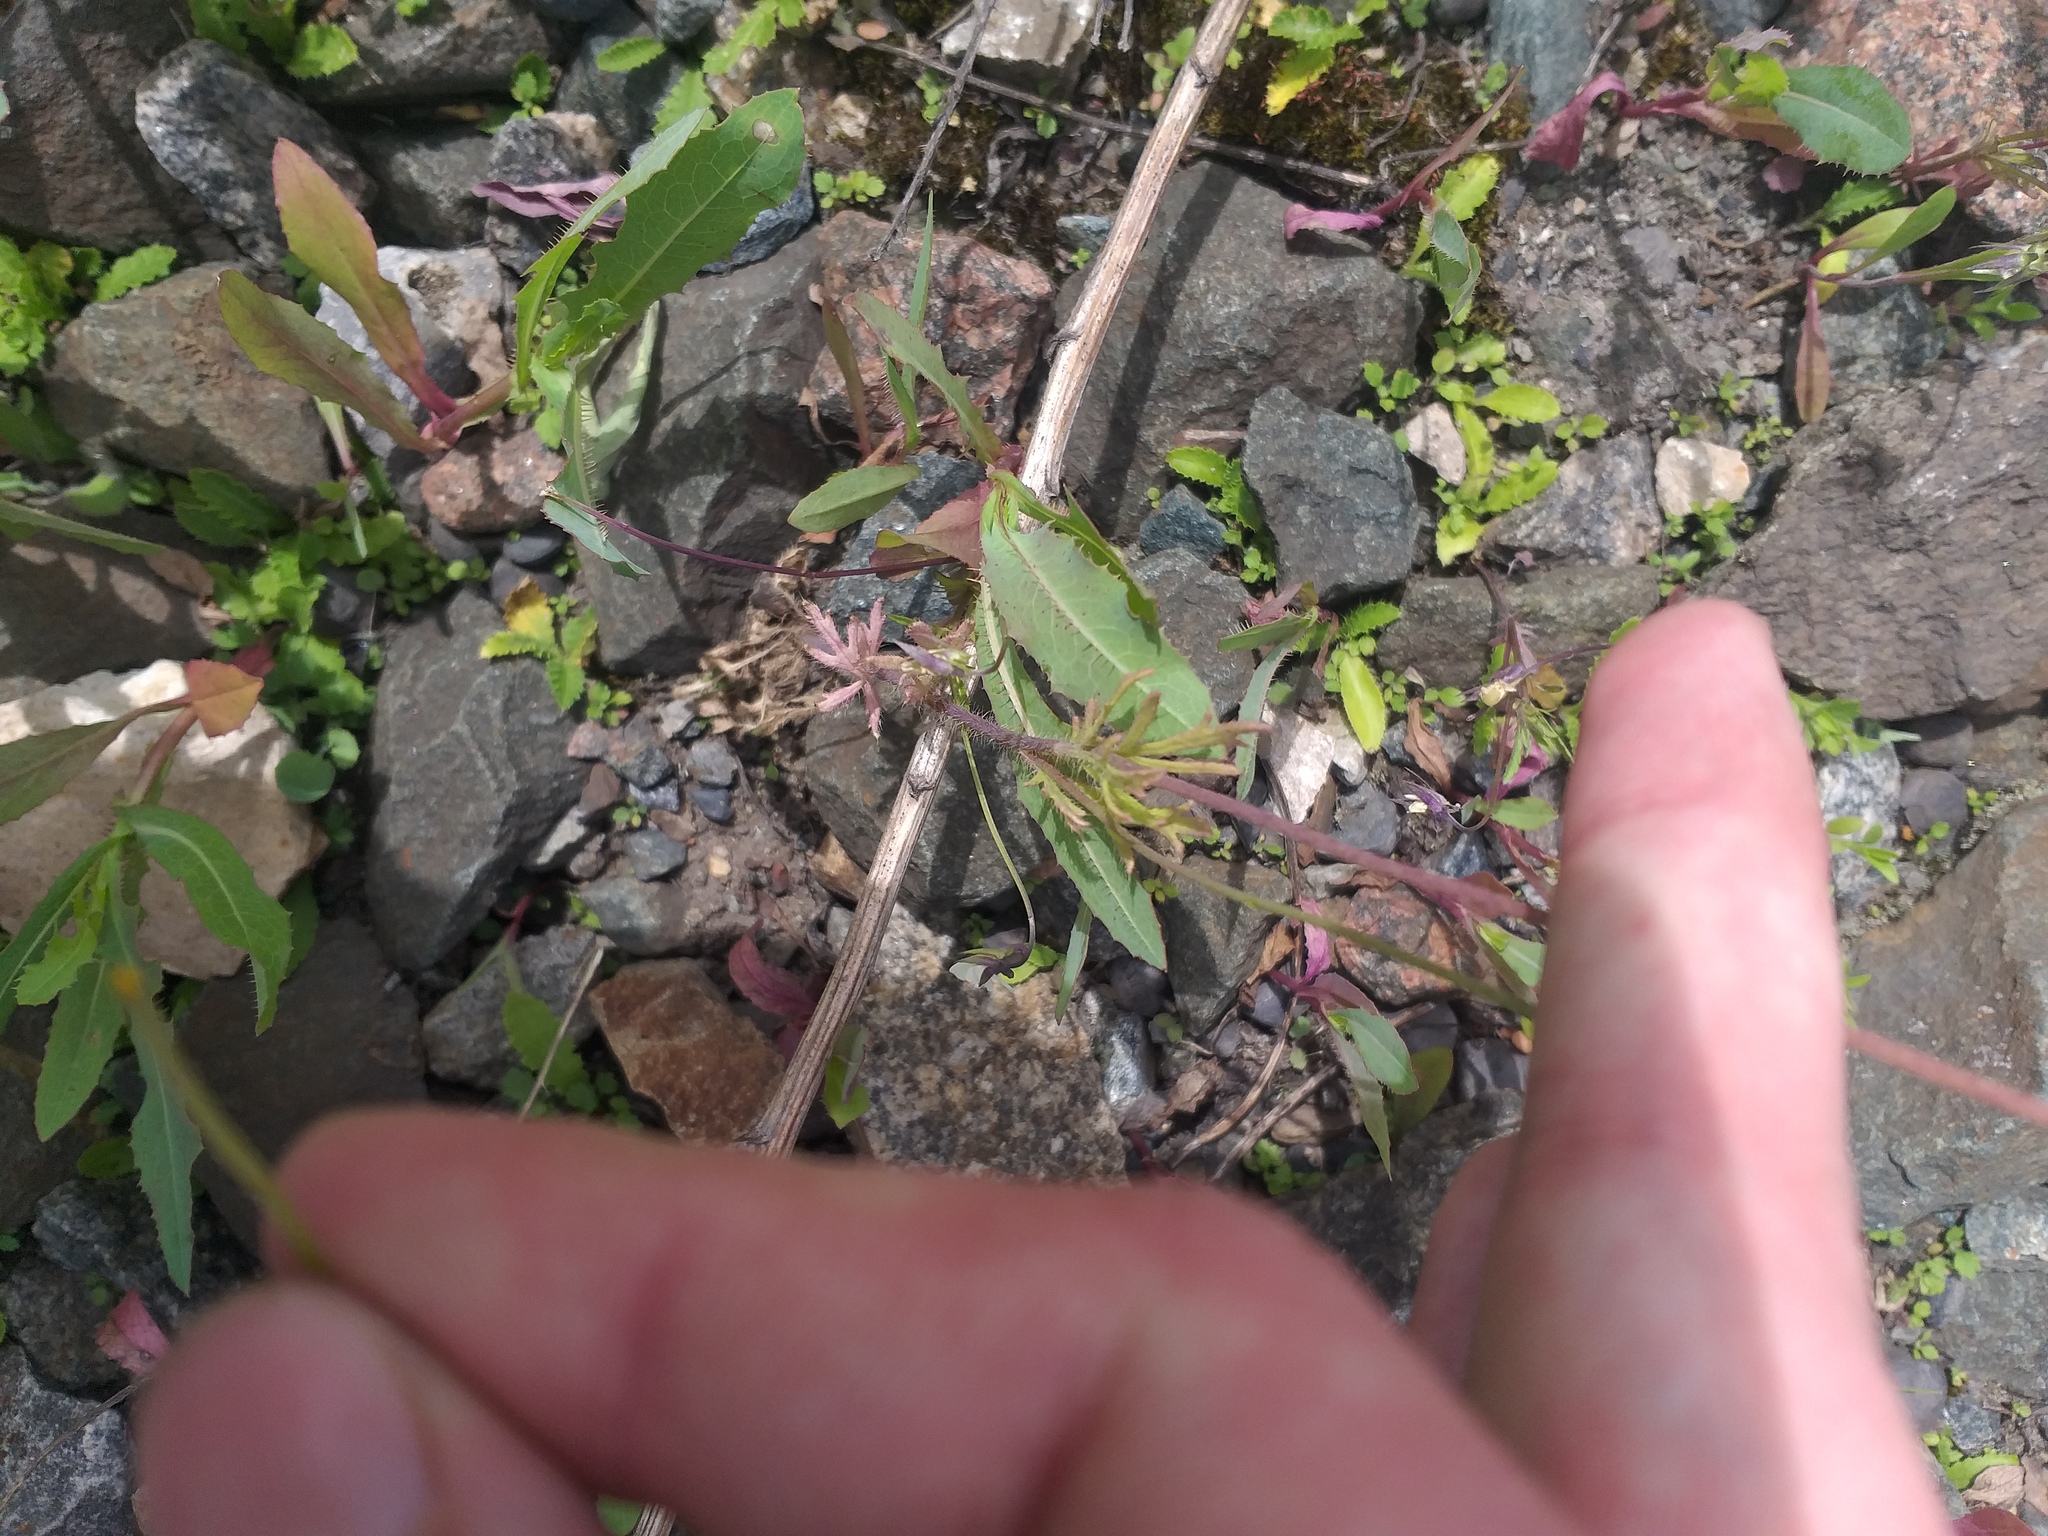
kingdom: Plantae
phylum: Tracheophyta
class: Magnoliopsida
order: Ranunculales
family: Papaveraceae
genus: Papaver
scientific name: Papaver dubium
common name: Long-headed poppy
